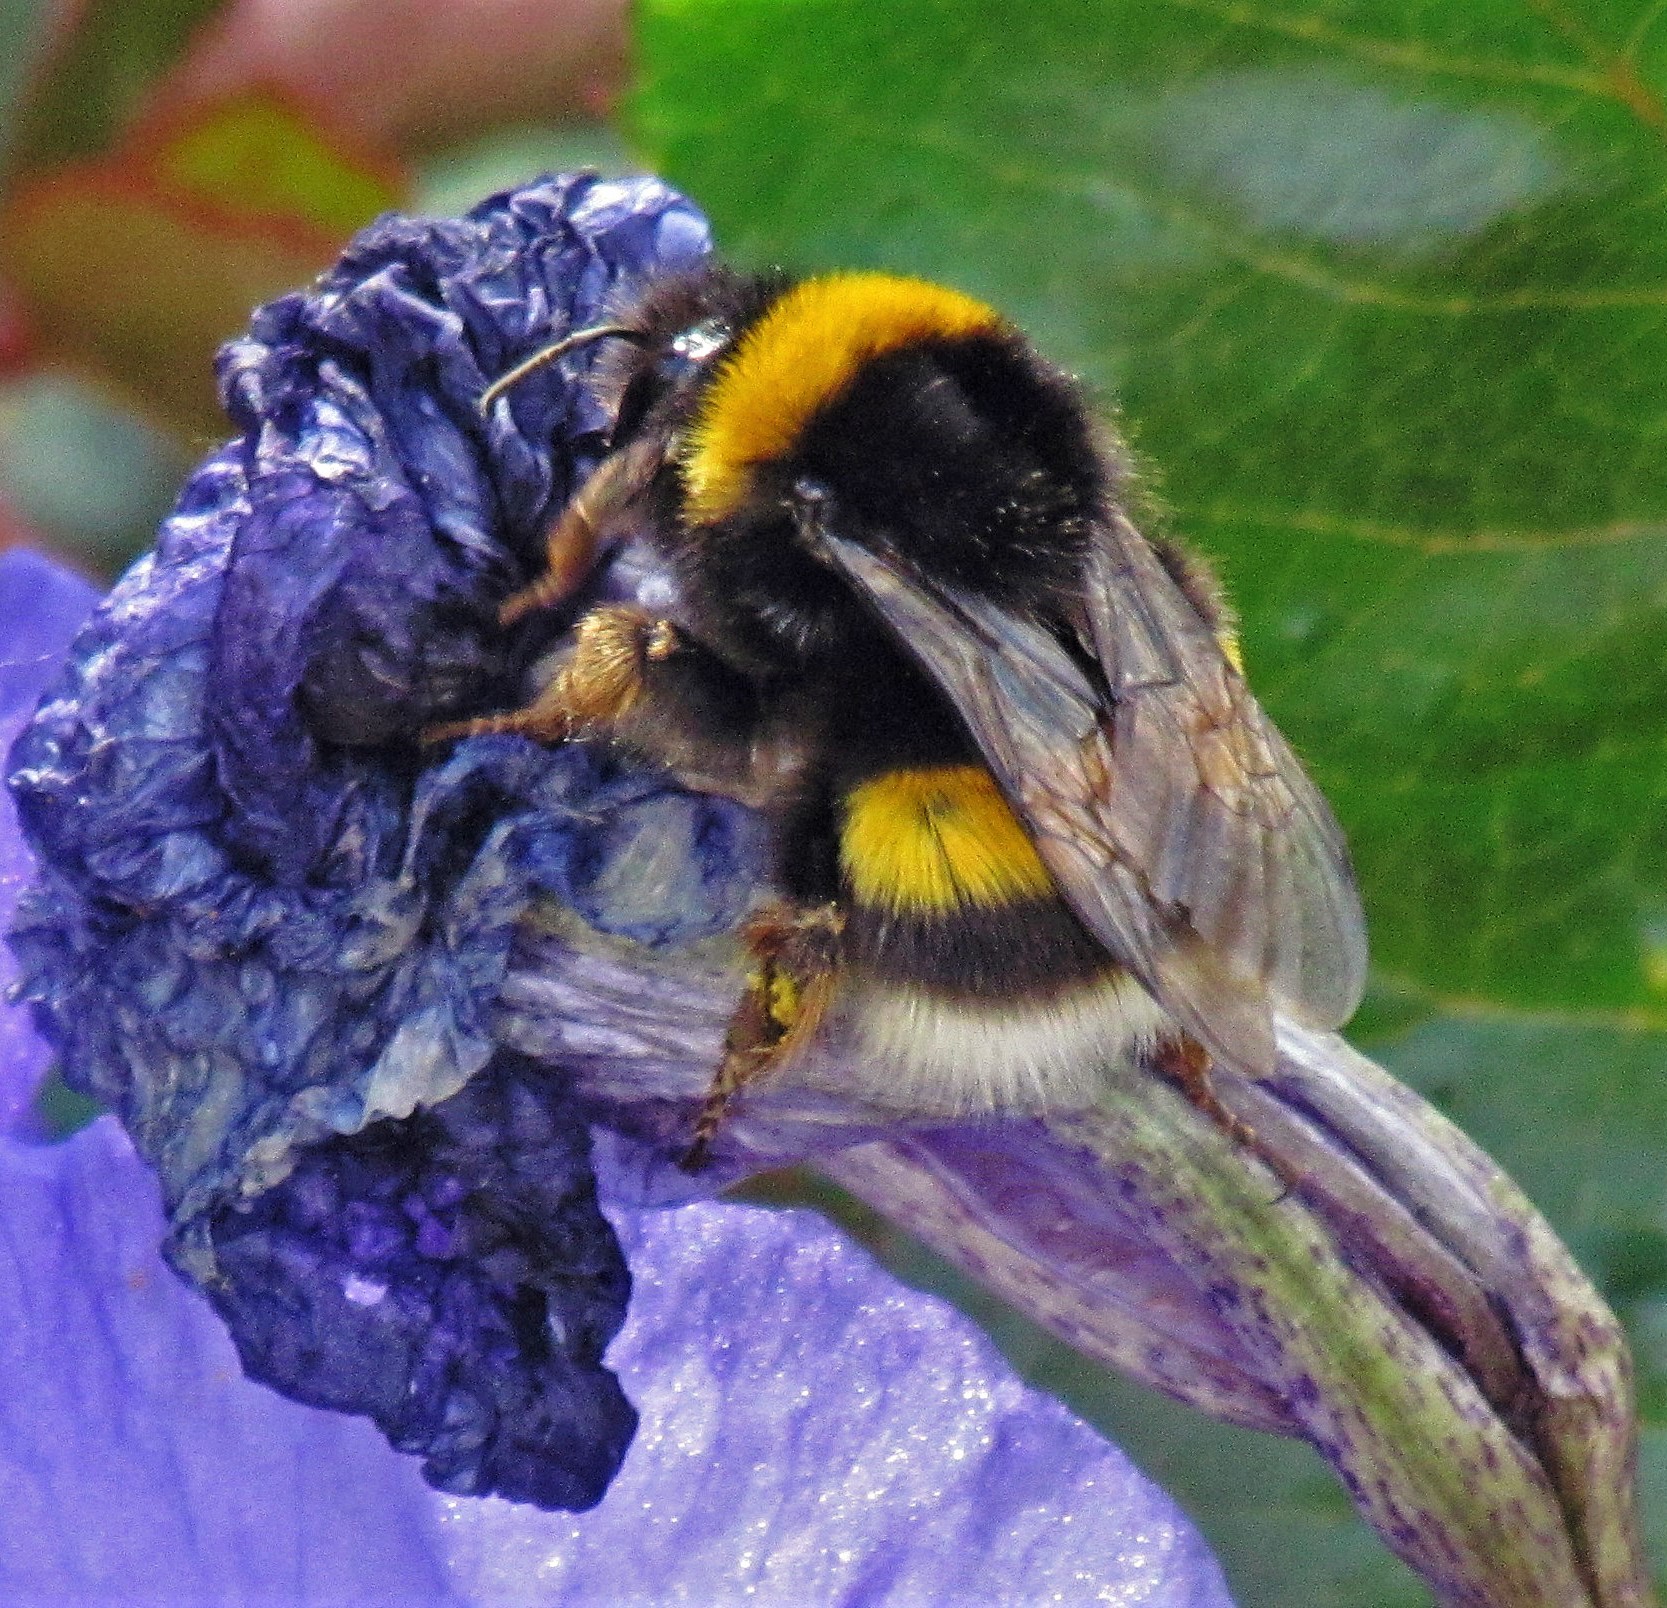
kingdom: Animalia
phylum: Arthropoda
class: Insecta
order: Hymenoptera
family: Apidae
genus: Bombus
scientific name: Bombus terrestris
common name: Buff-tailed bumblebee
